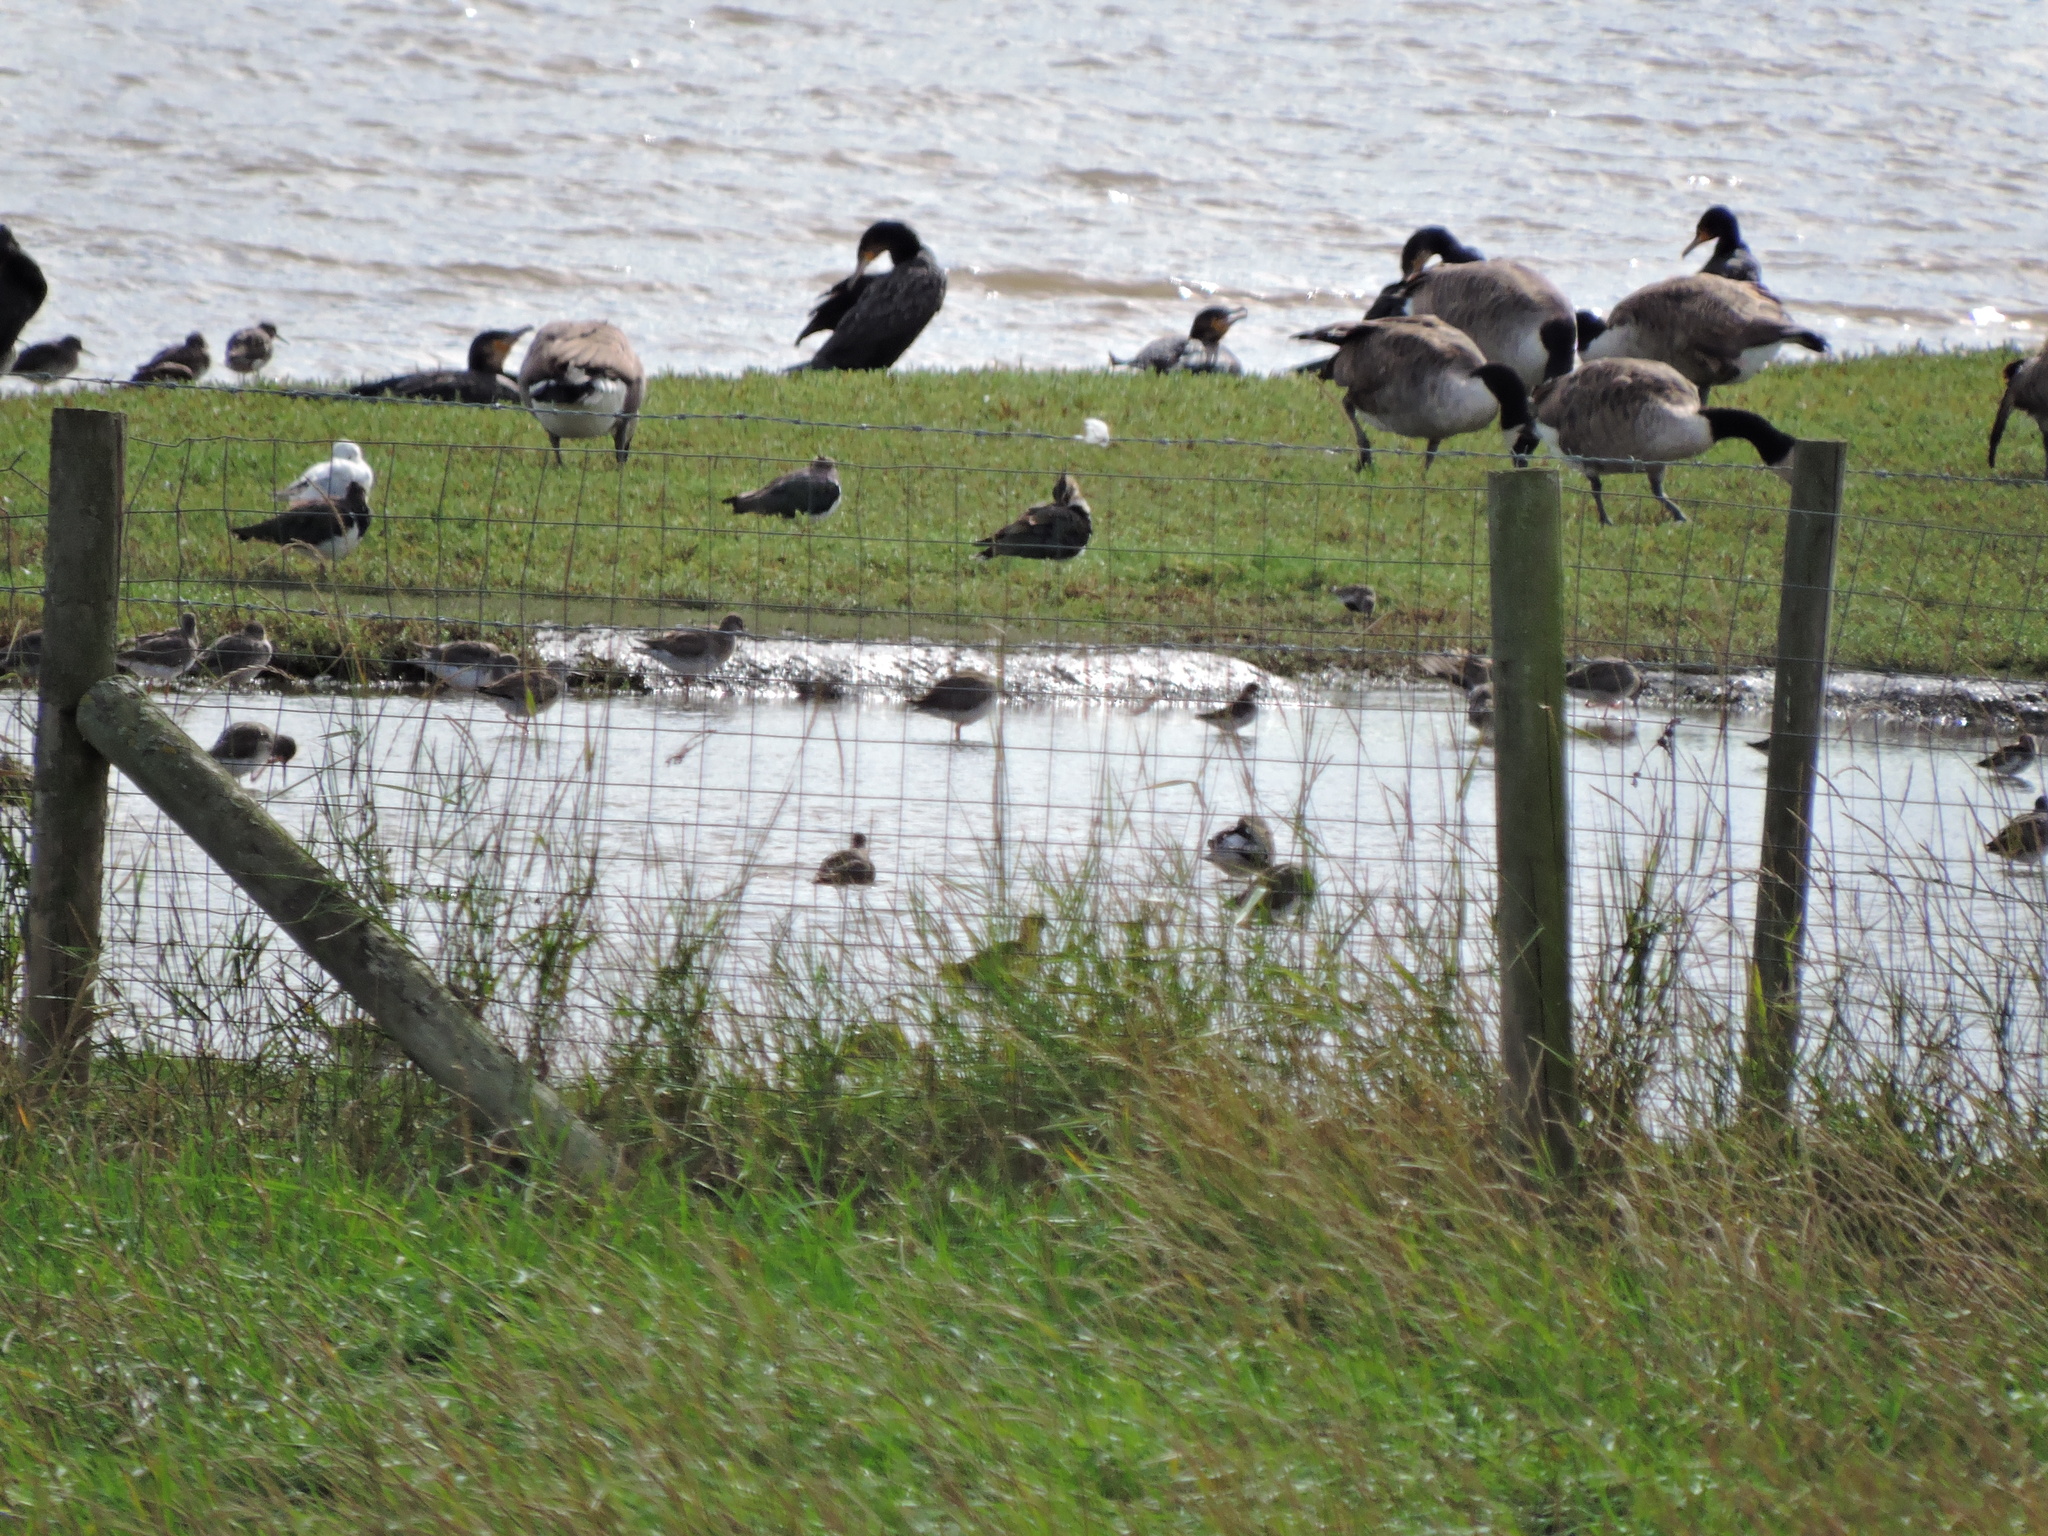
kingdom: Animalia
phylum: Chordata
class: Aves
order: Charadriiformes
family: Scolopacidae
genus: Tringa
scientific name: Tringa totanus
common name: Common redshank
